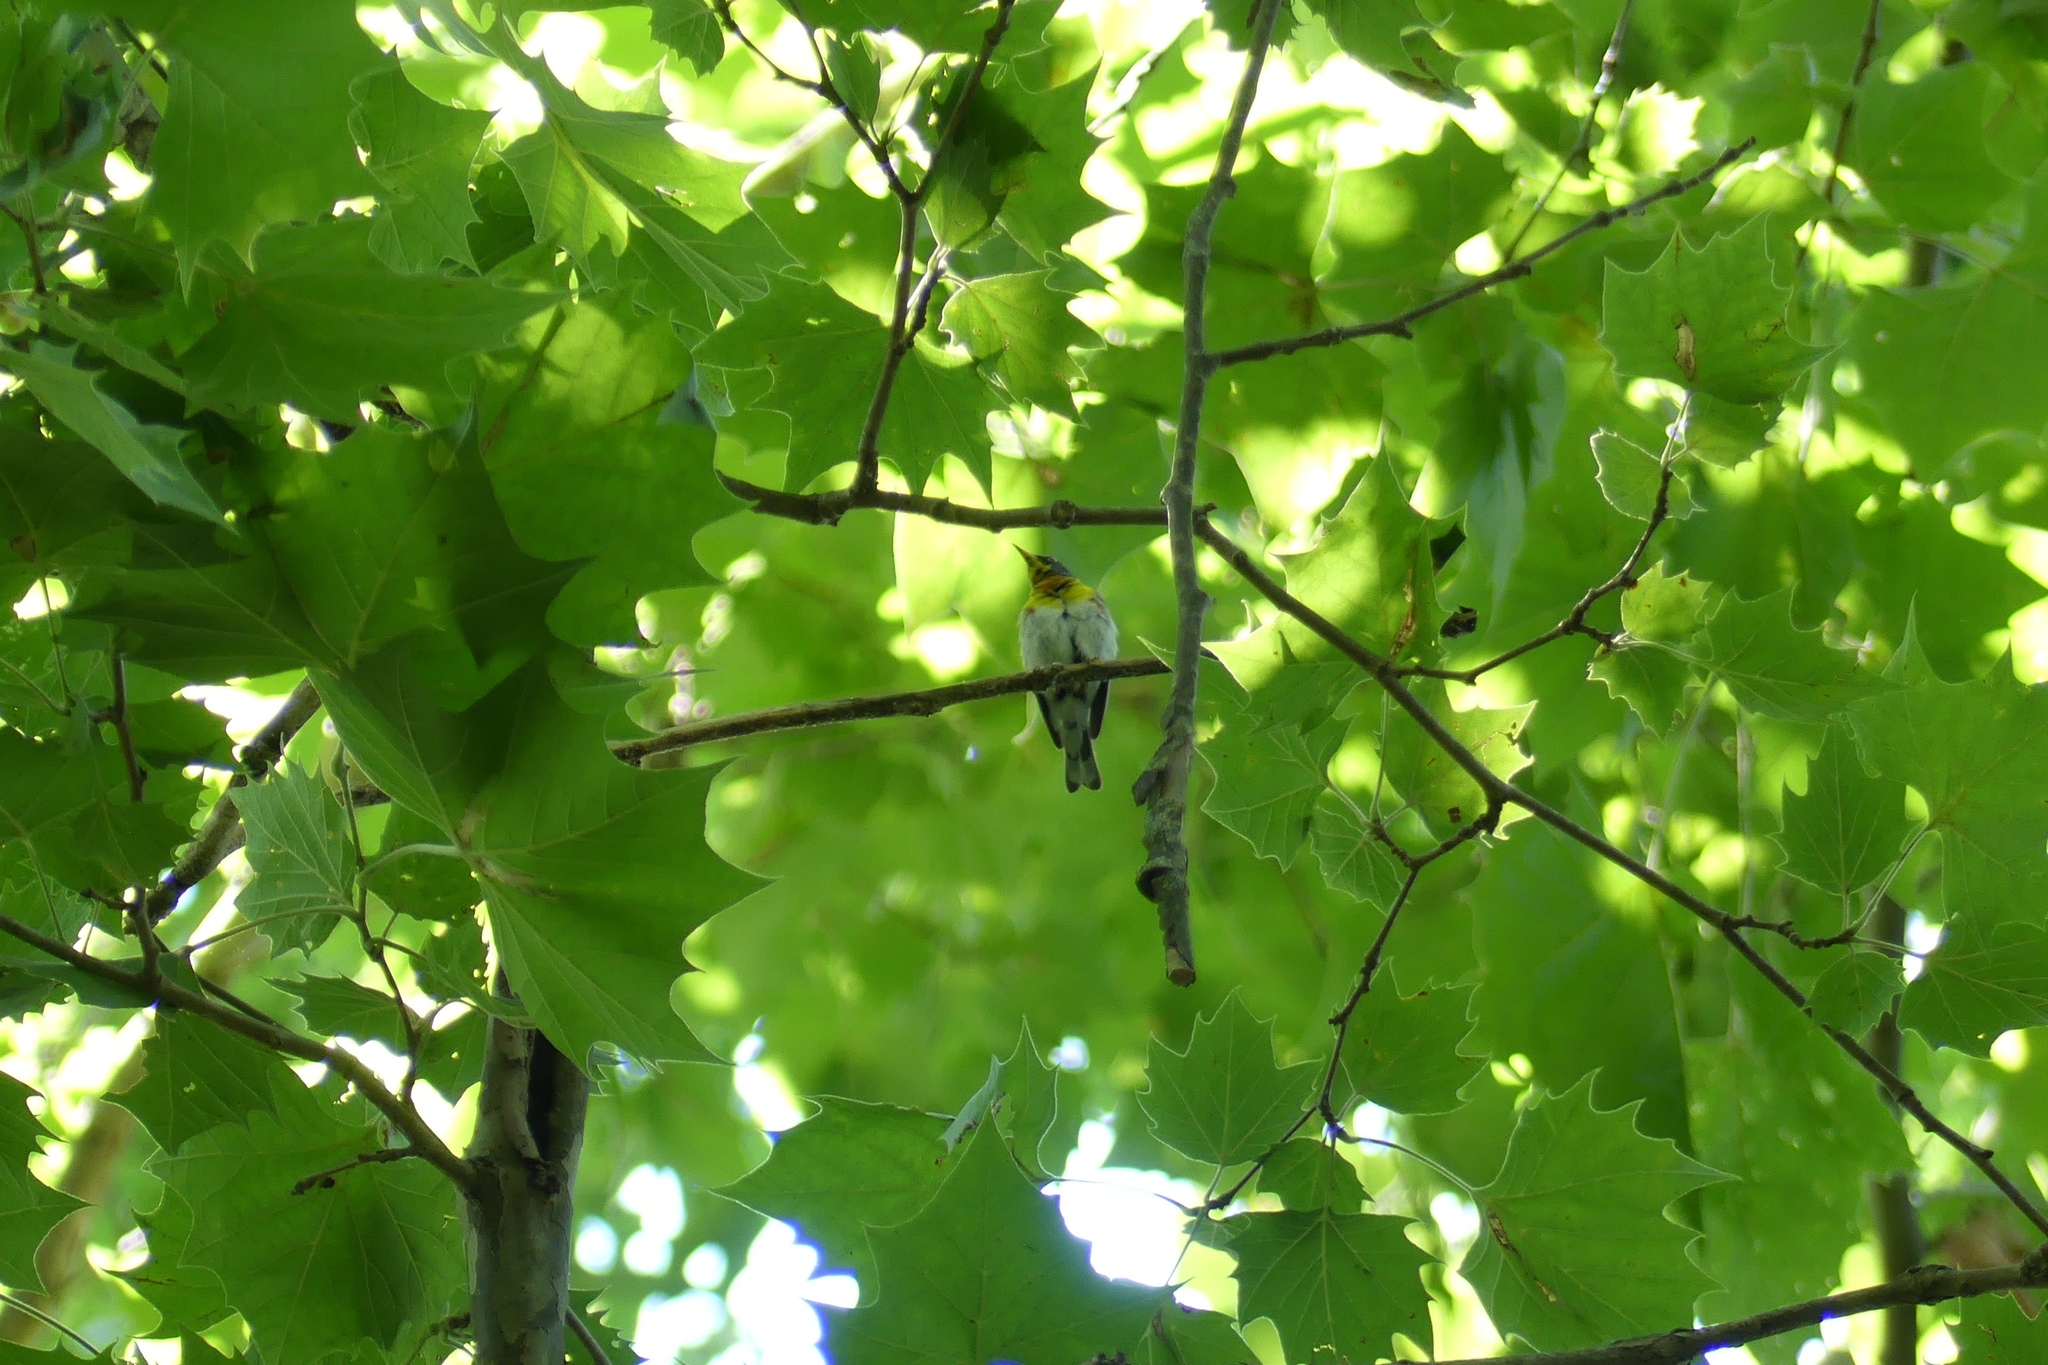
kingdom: Animalia
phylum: Chordata
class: Aves
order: Passeriformes
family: Parulidae
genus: Setophaga
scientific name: Setophaga americana
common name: Northern parula
